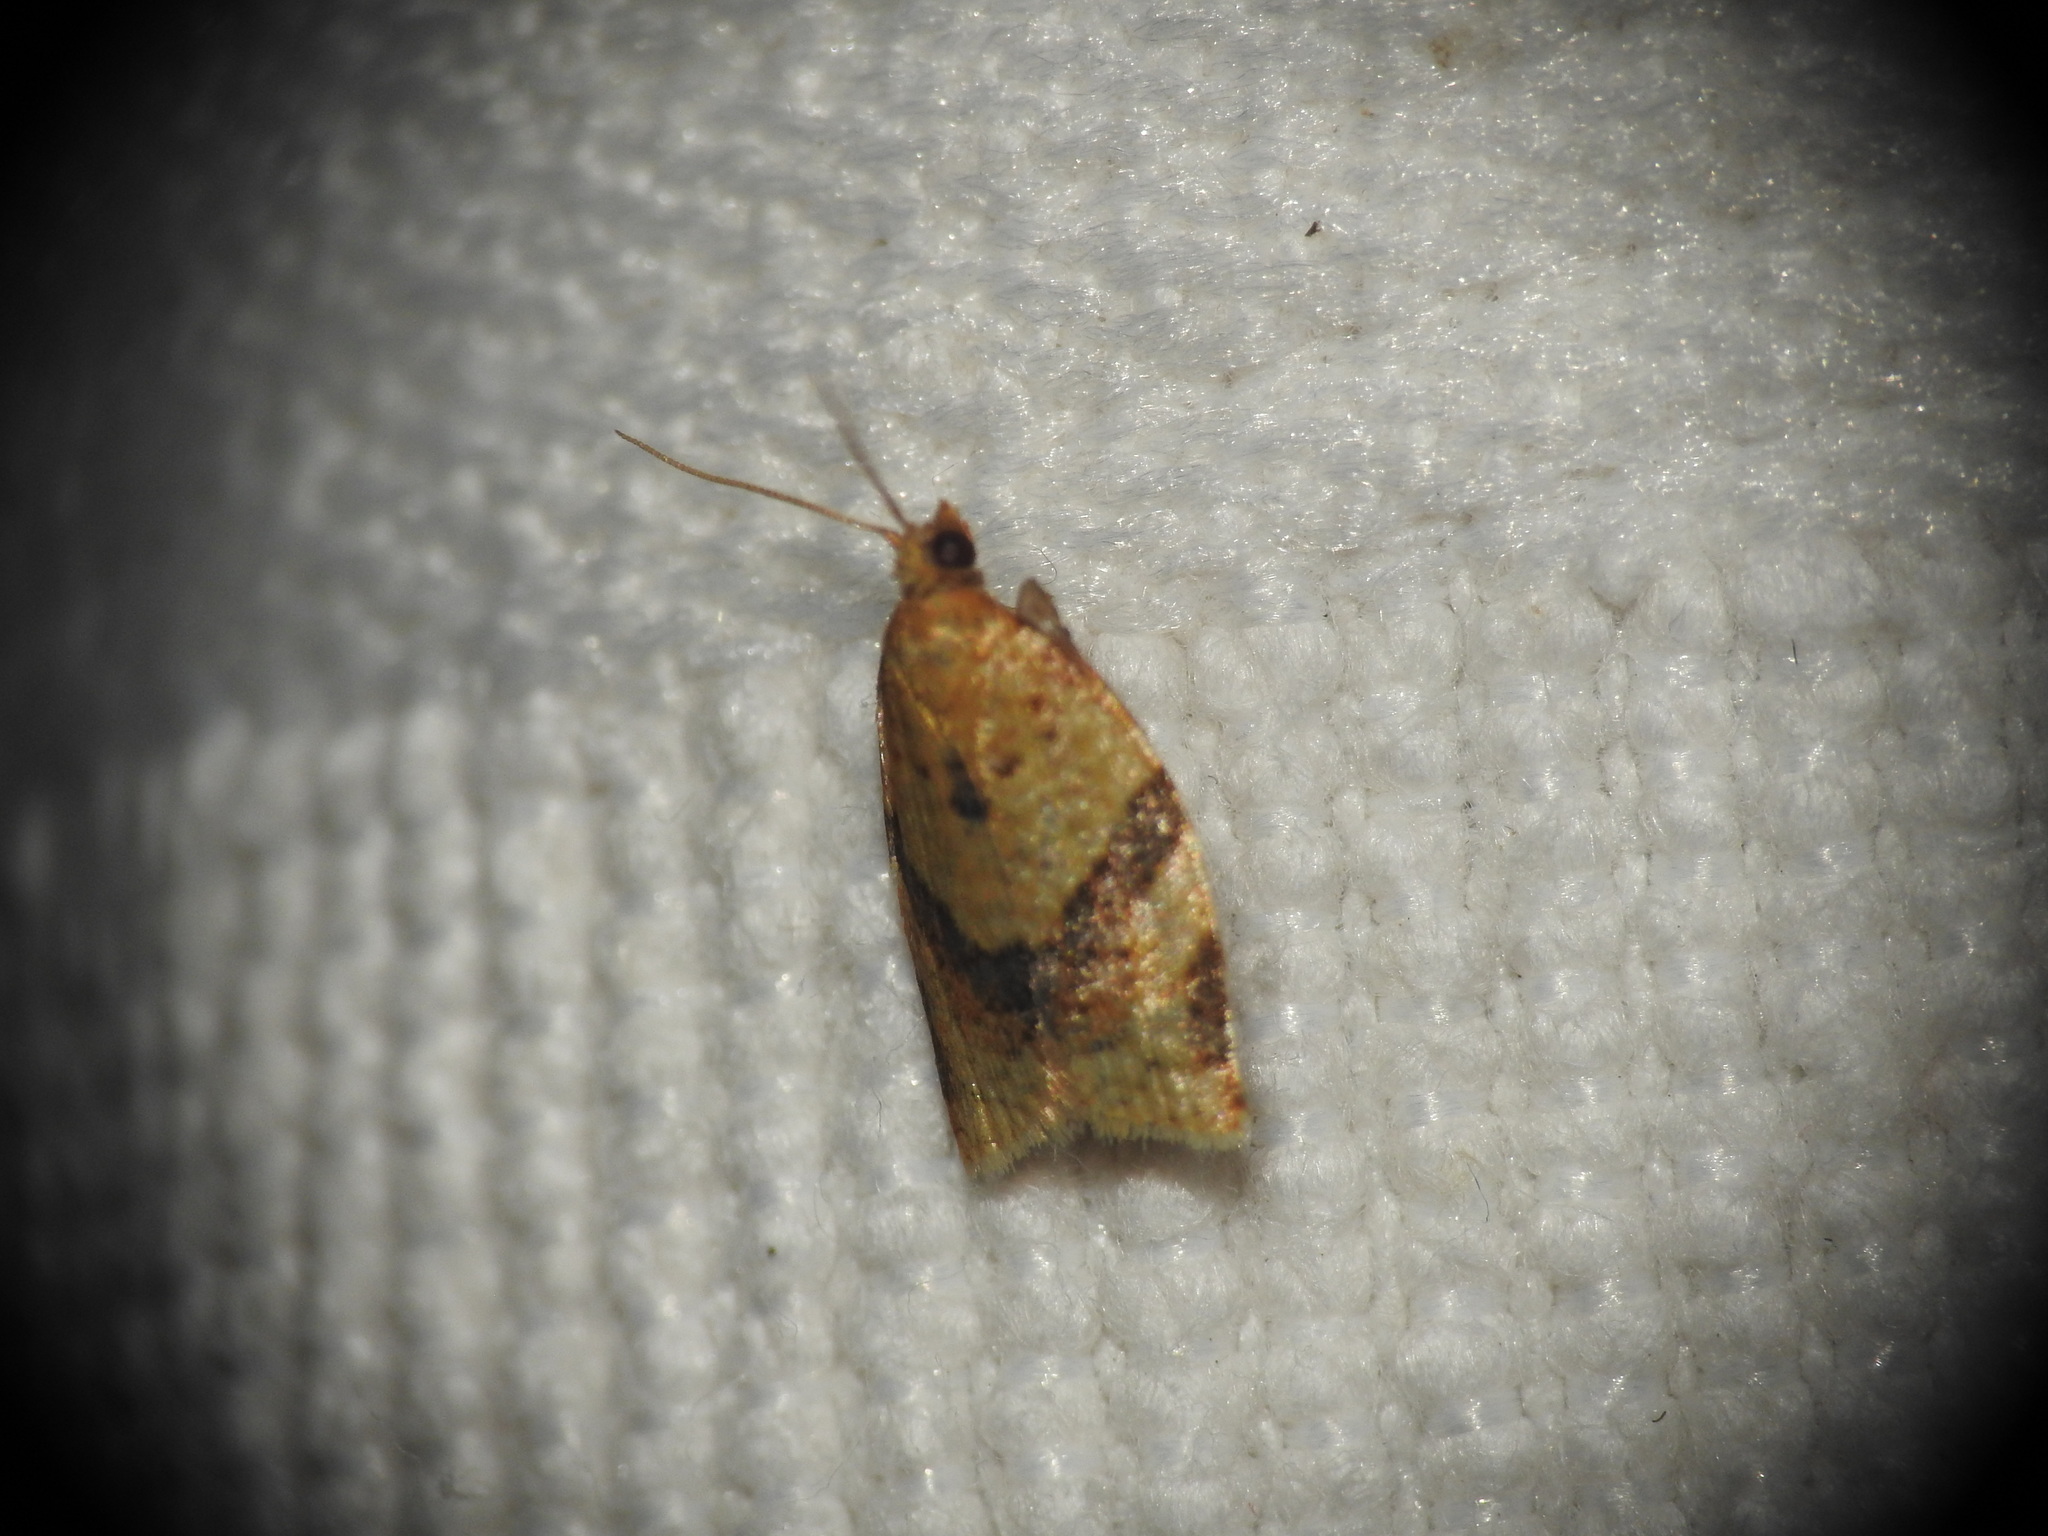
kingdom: Animalia
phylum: Arthropoda
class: Insecta
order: Lepidoptera
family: Tortricidae
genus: Clepsis
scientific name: Clepsis consimilana
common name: Privet tortrix
